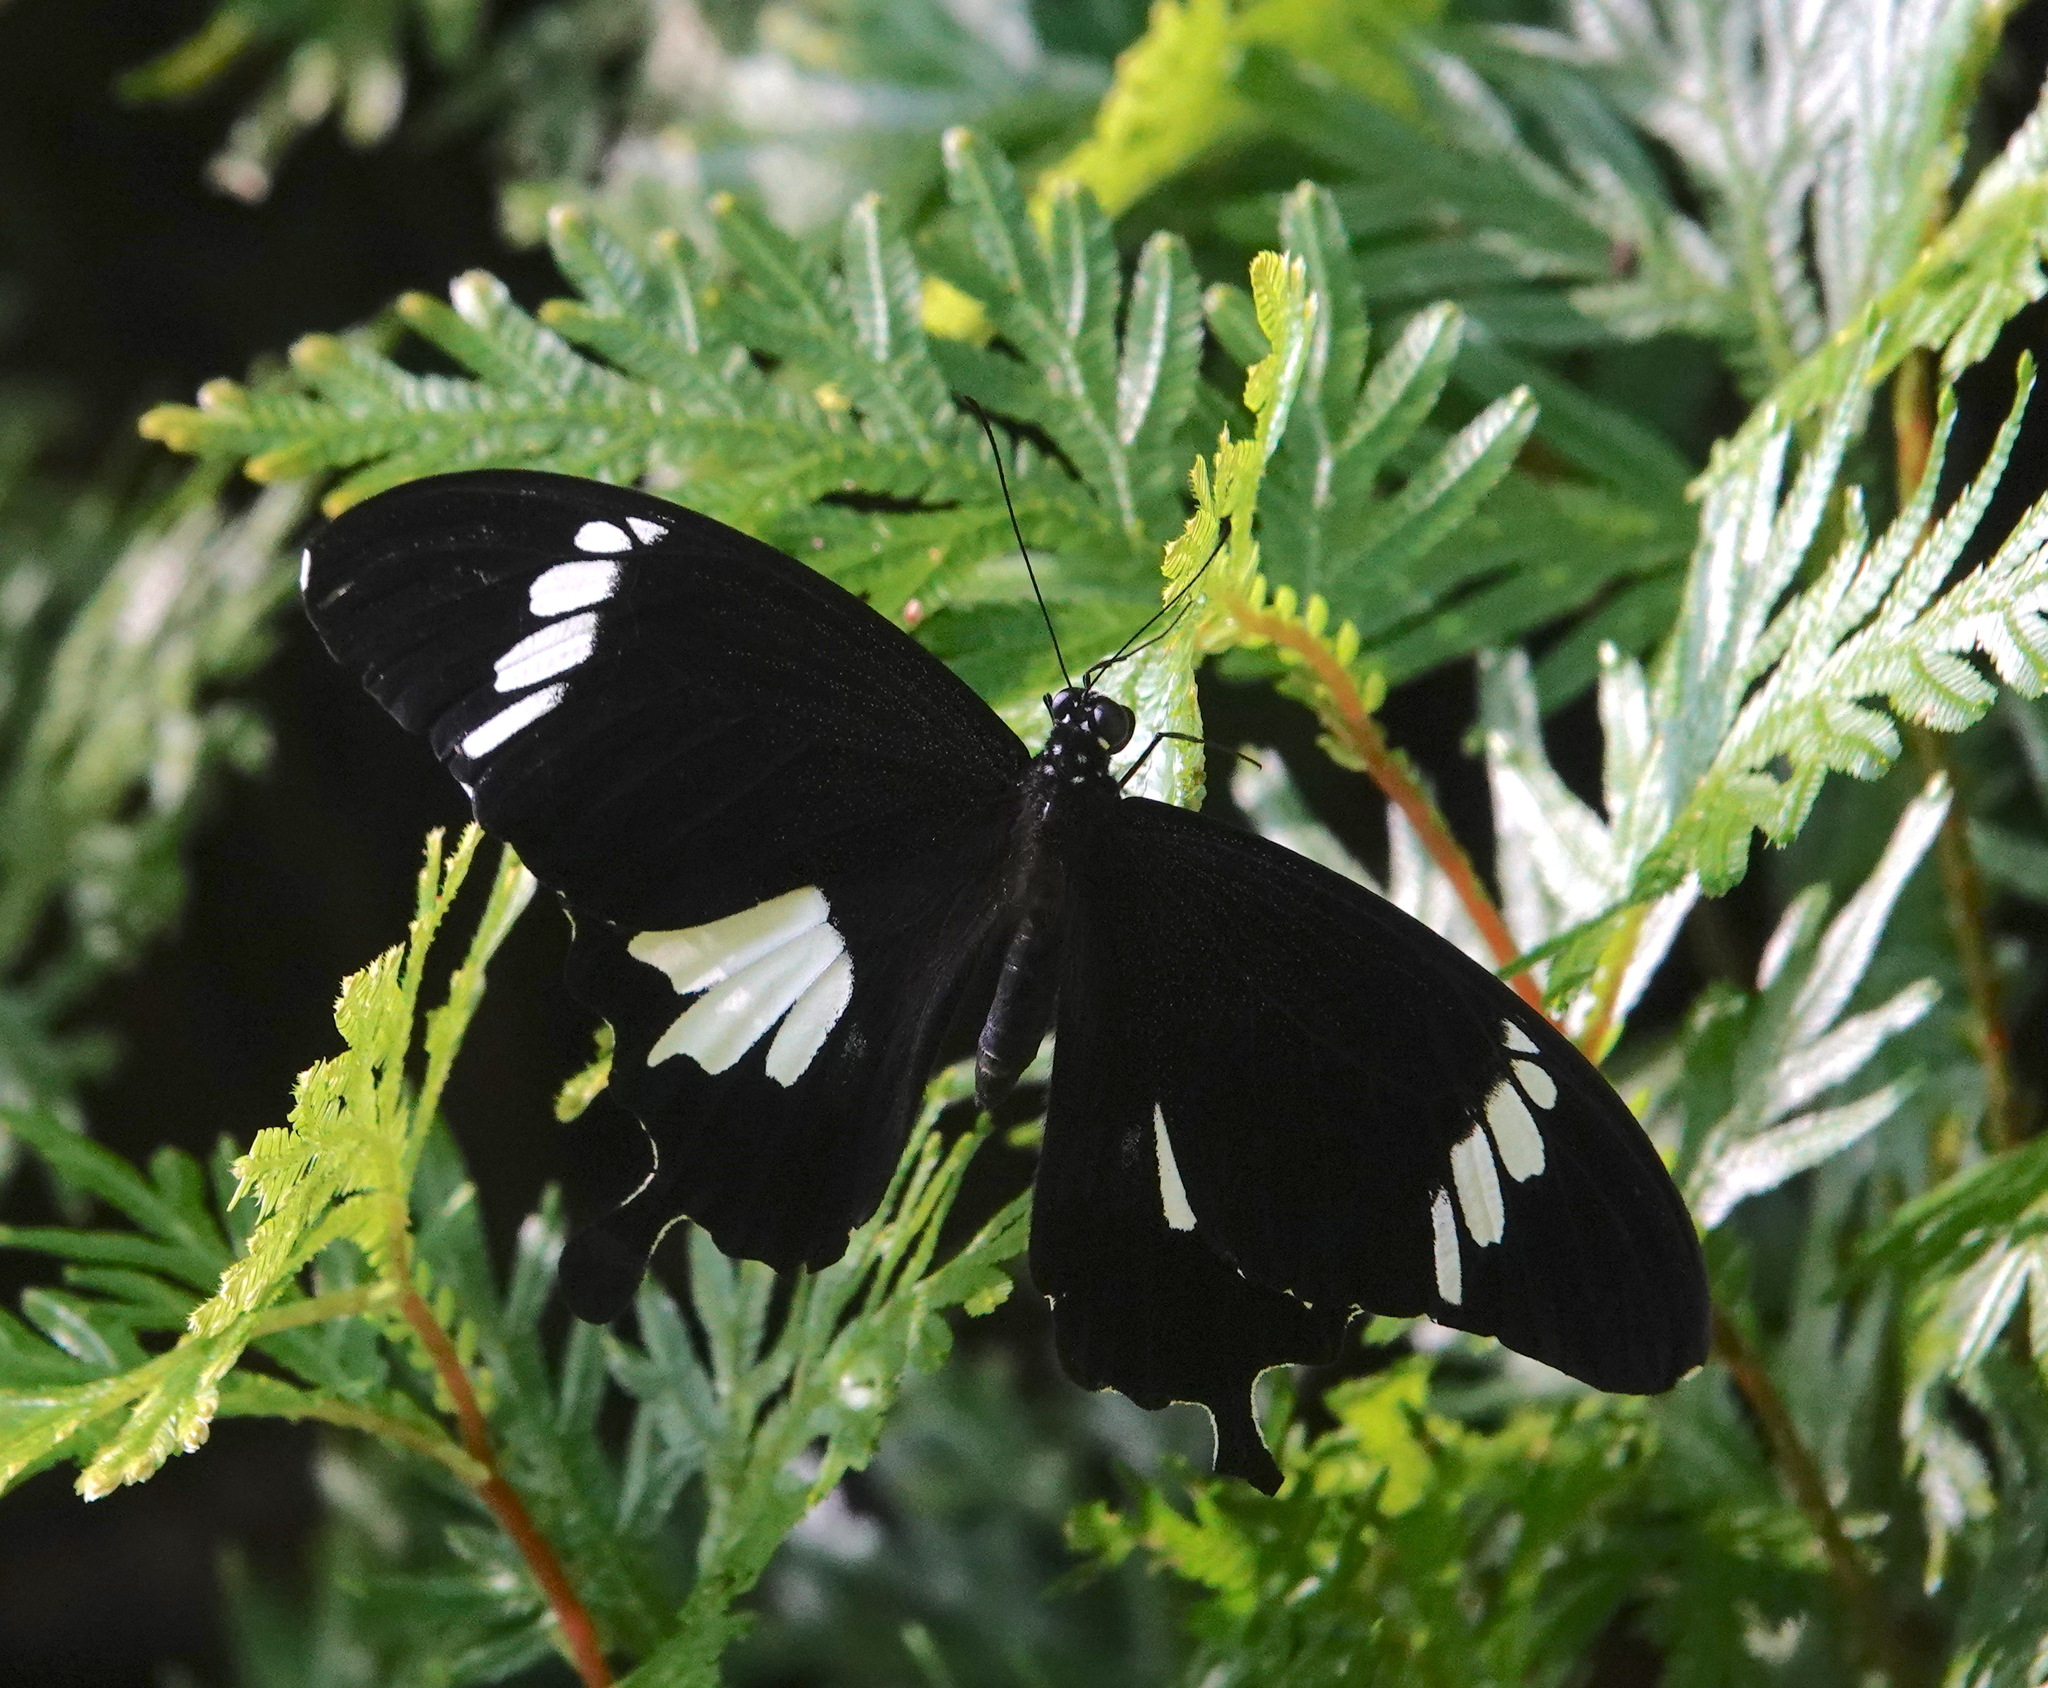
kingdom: Animalia
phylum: Arthropoda
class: Insecta
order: Lepidoptera
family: Papilionidae
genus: Papilio
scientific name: Papilio nephelus
